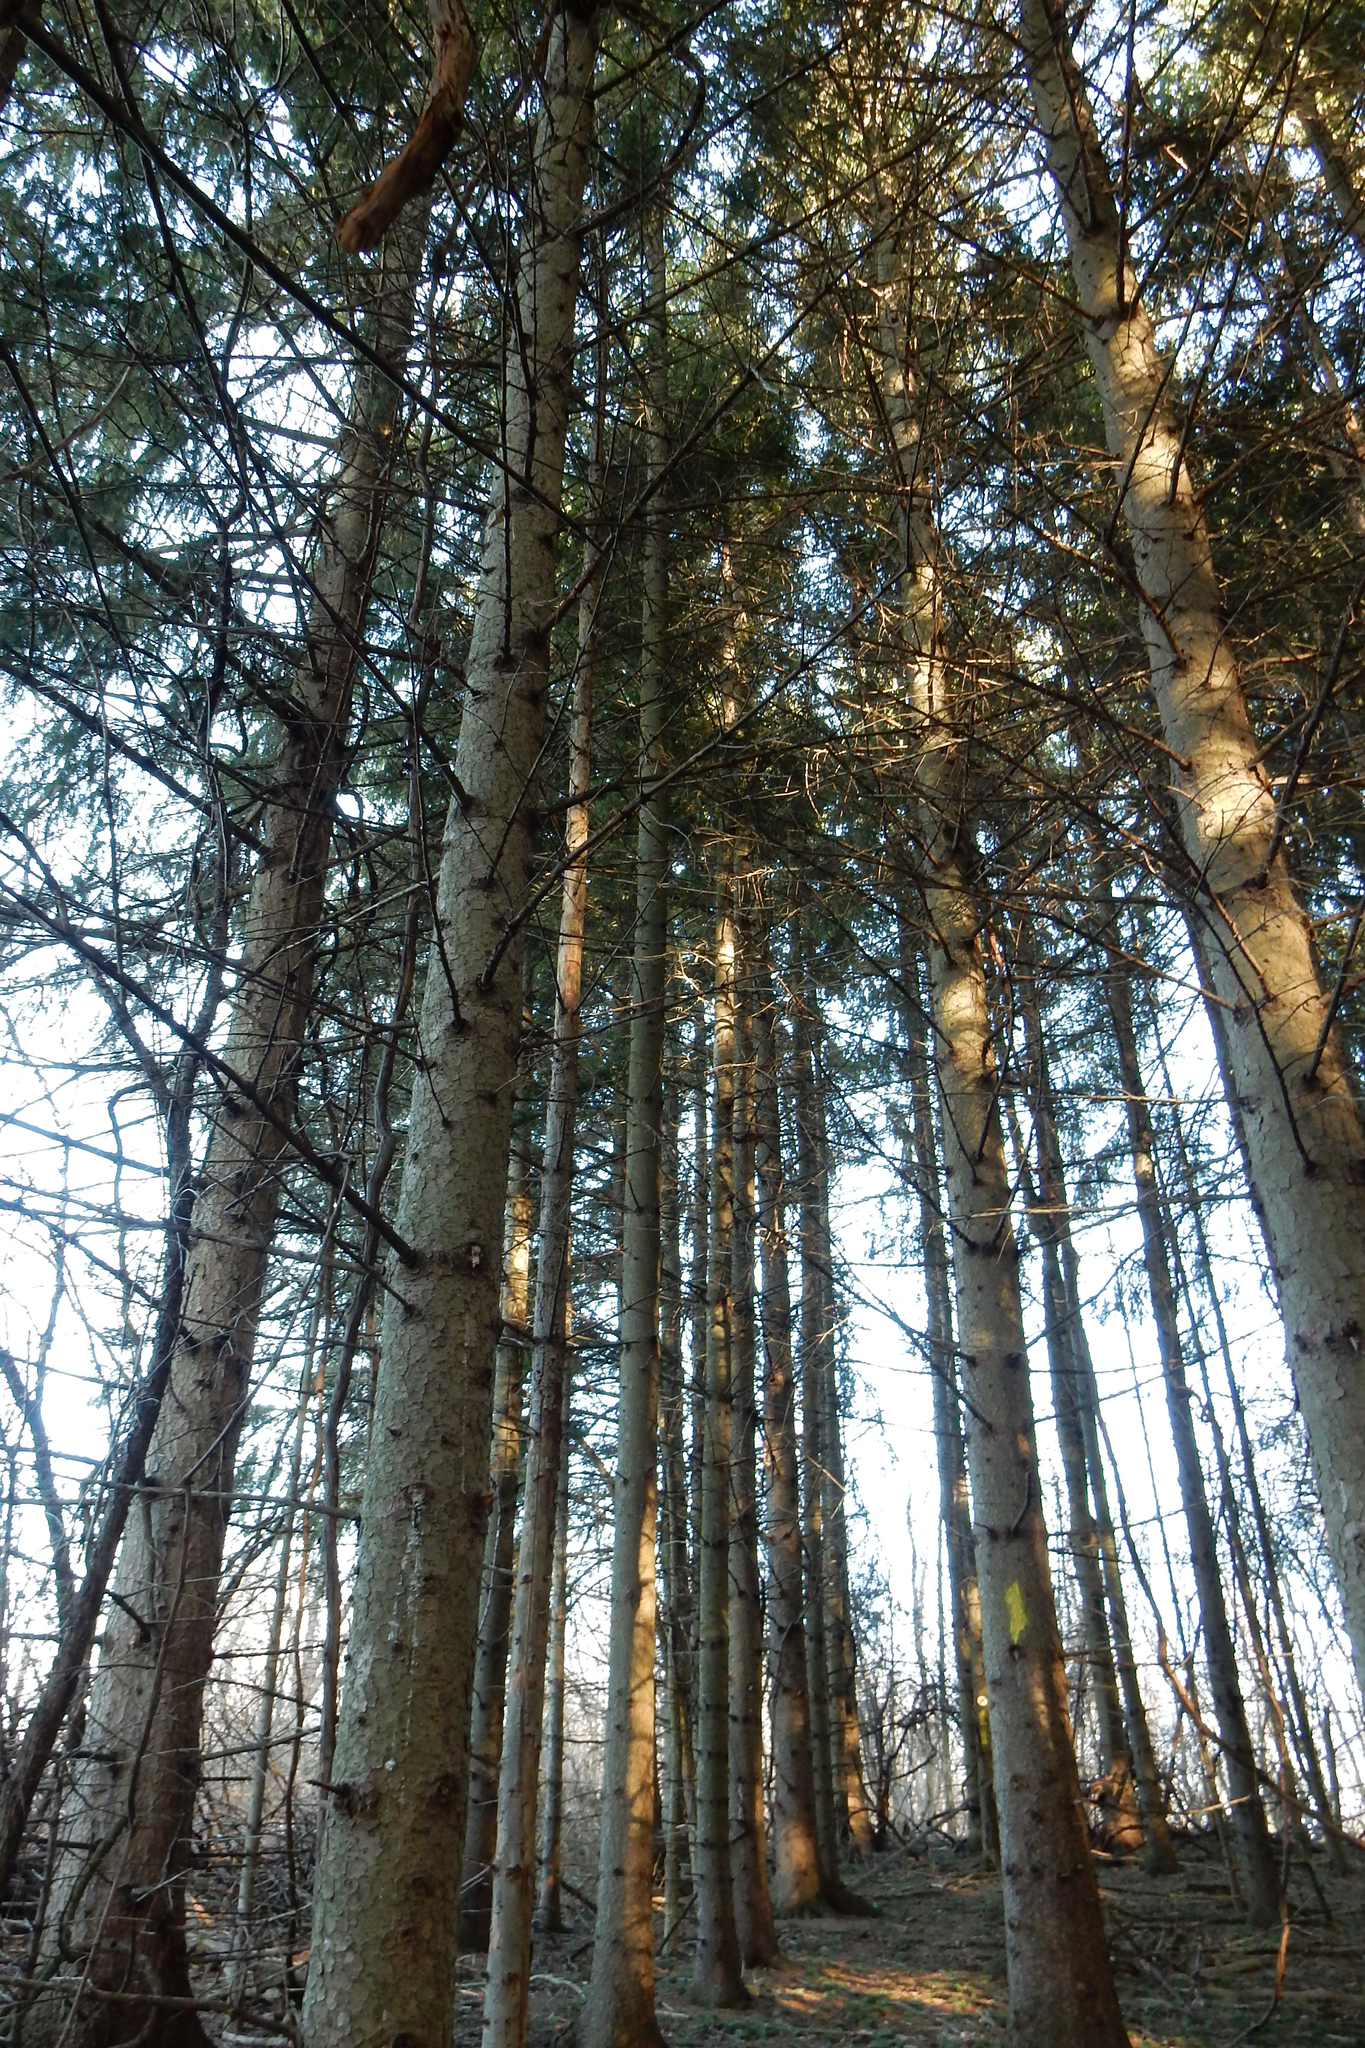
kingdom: Plantae
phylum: Tracheophyta
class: Pinopsida
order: Pinales
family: Pinaceae
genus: Picea
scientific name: Picea abies
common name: Norway spruce
